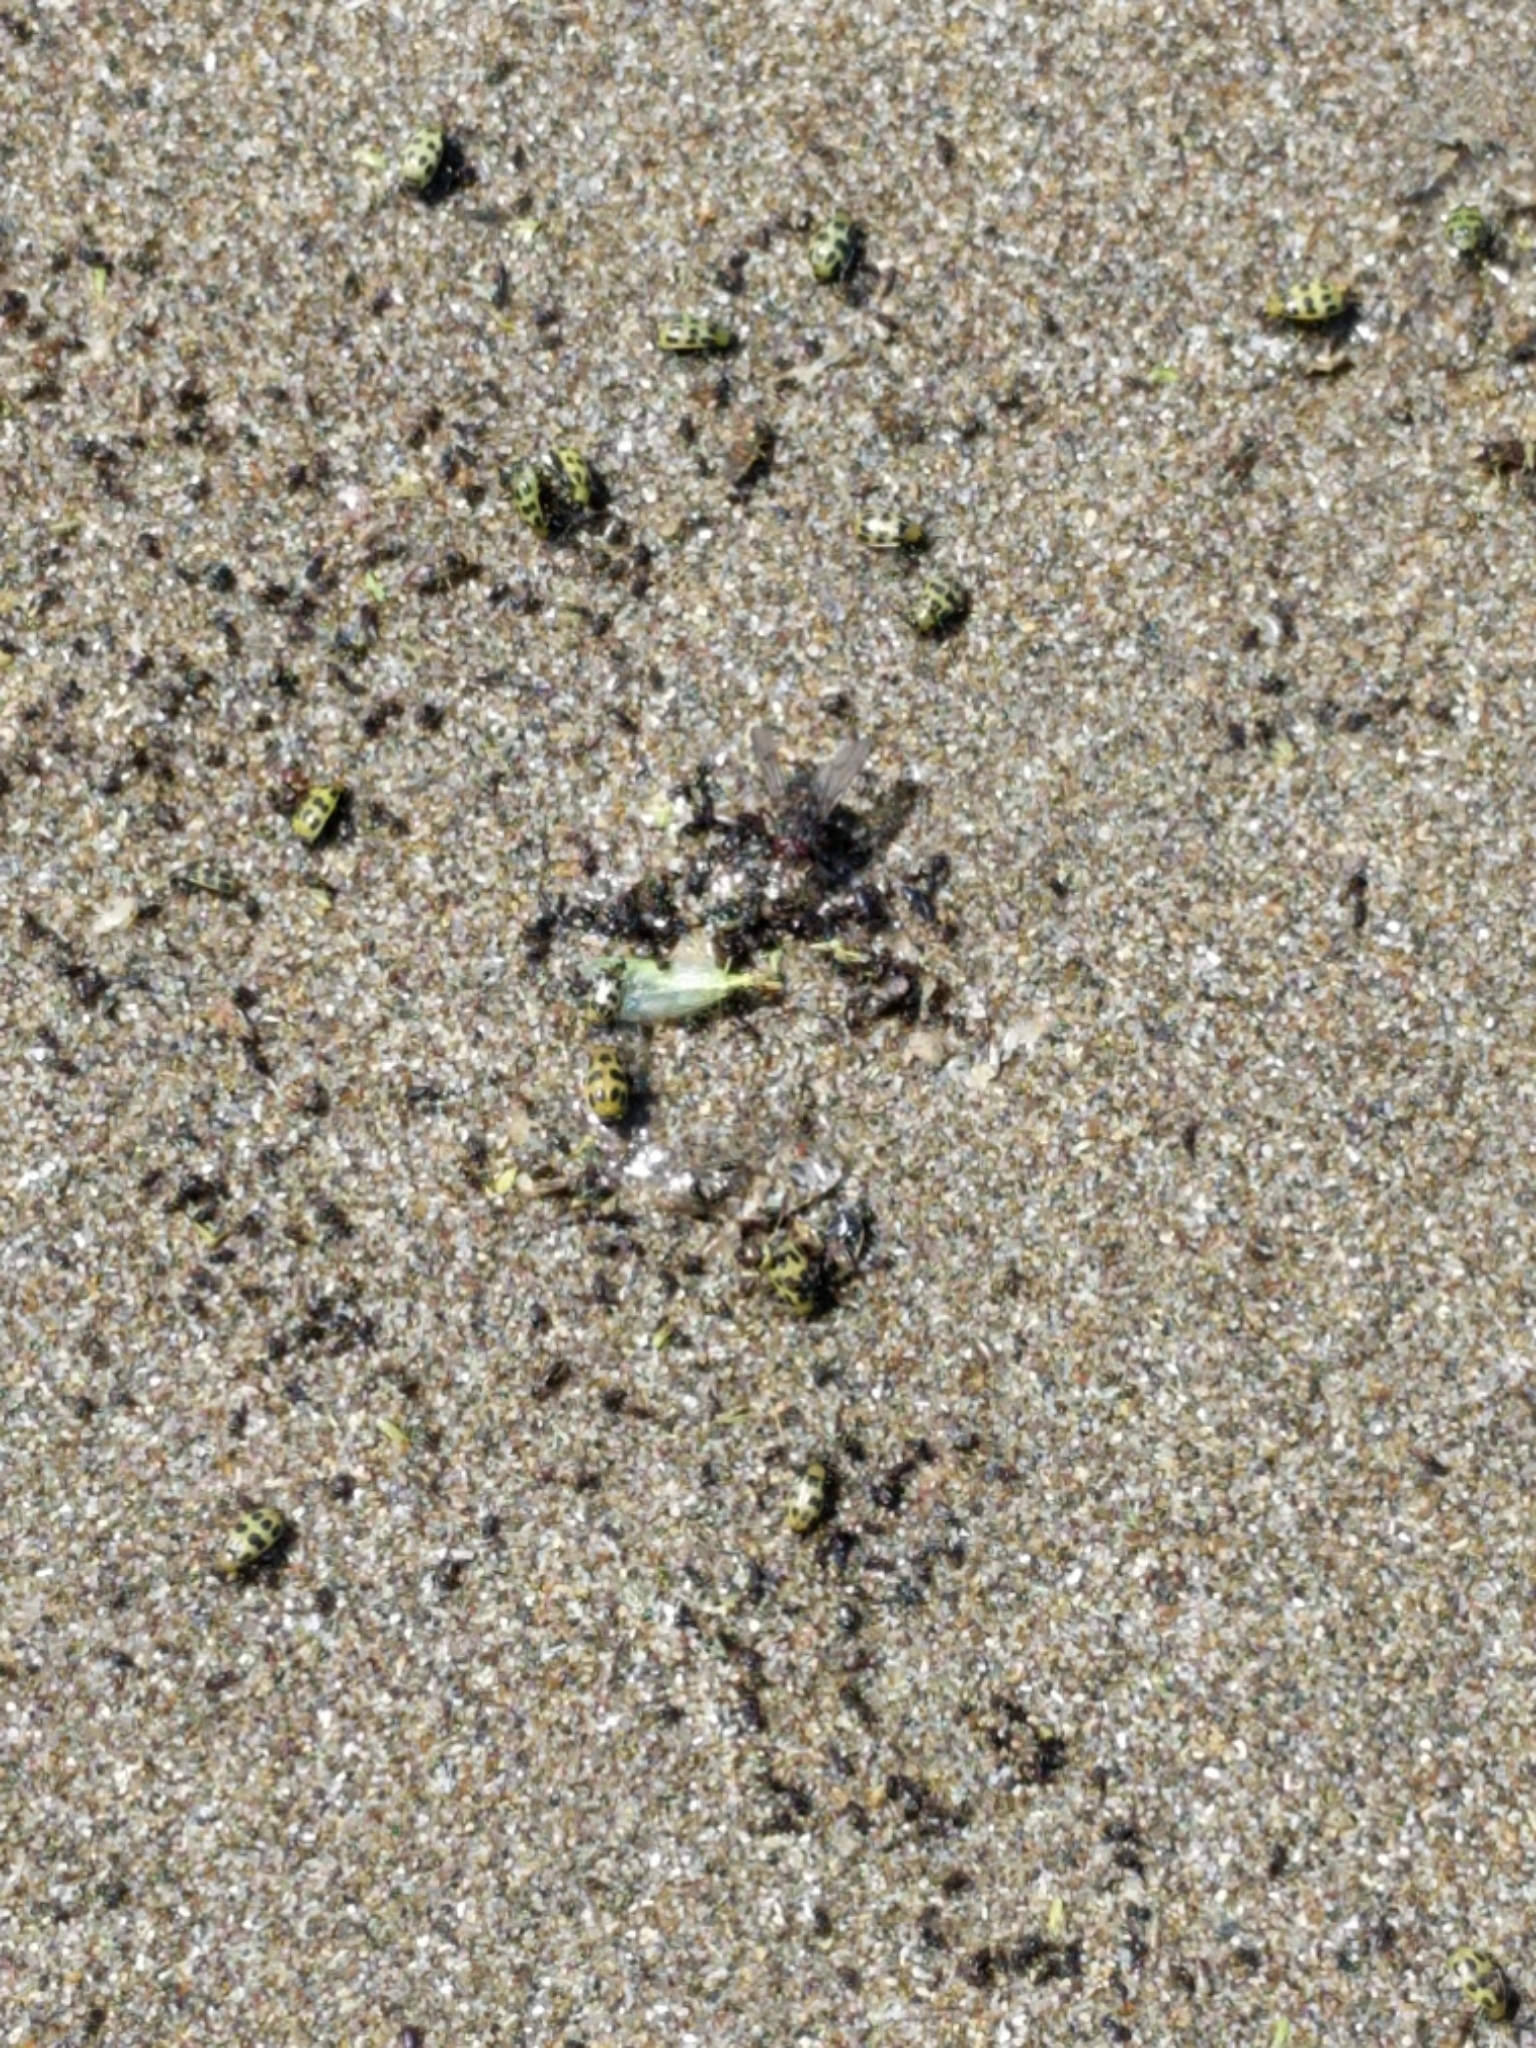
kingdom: Animalia
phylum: Arthropoda
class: Insecta
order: Coleoptera
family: Chrysomelidae
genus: Diabrotica
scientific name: Diabrotica undecimpunctata
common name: Spotted cucumber beetle
